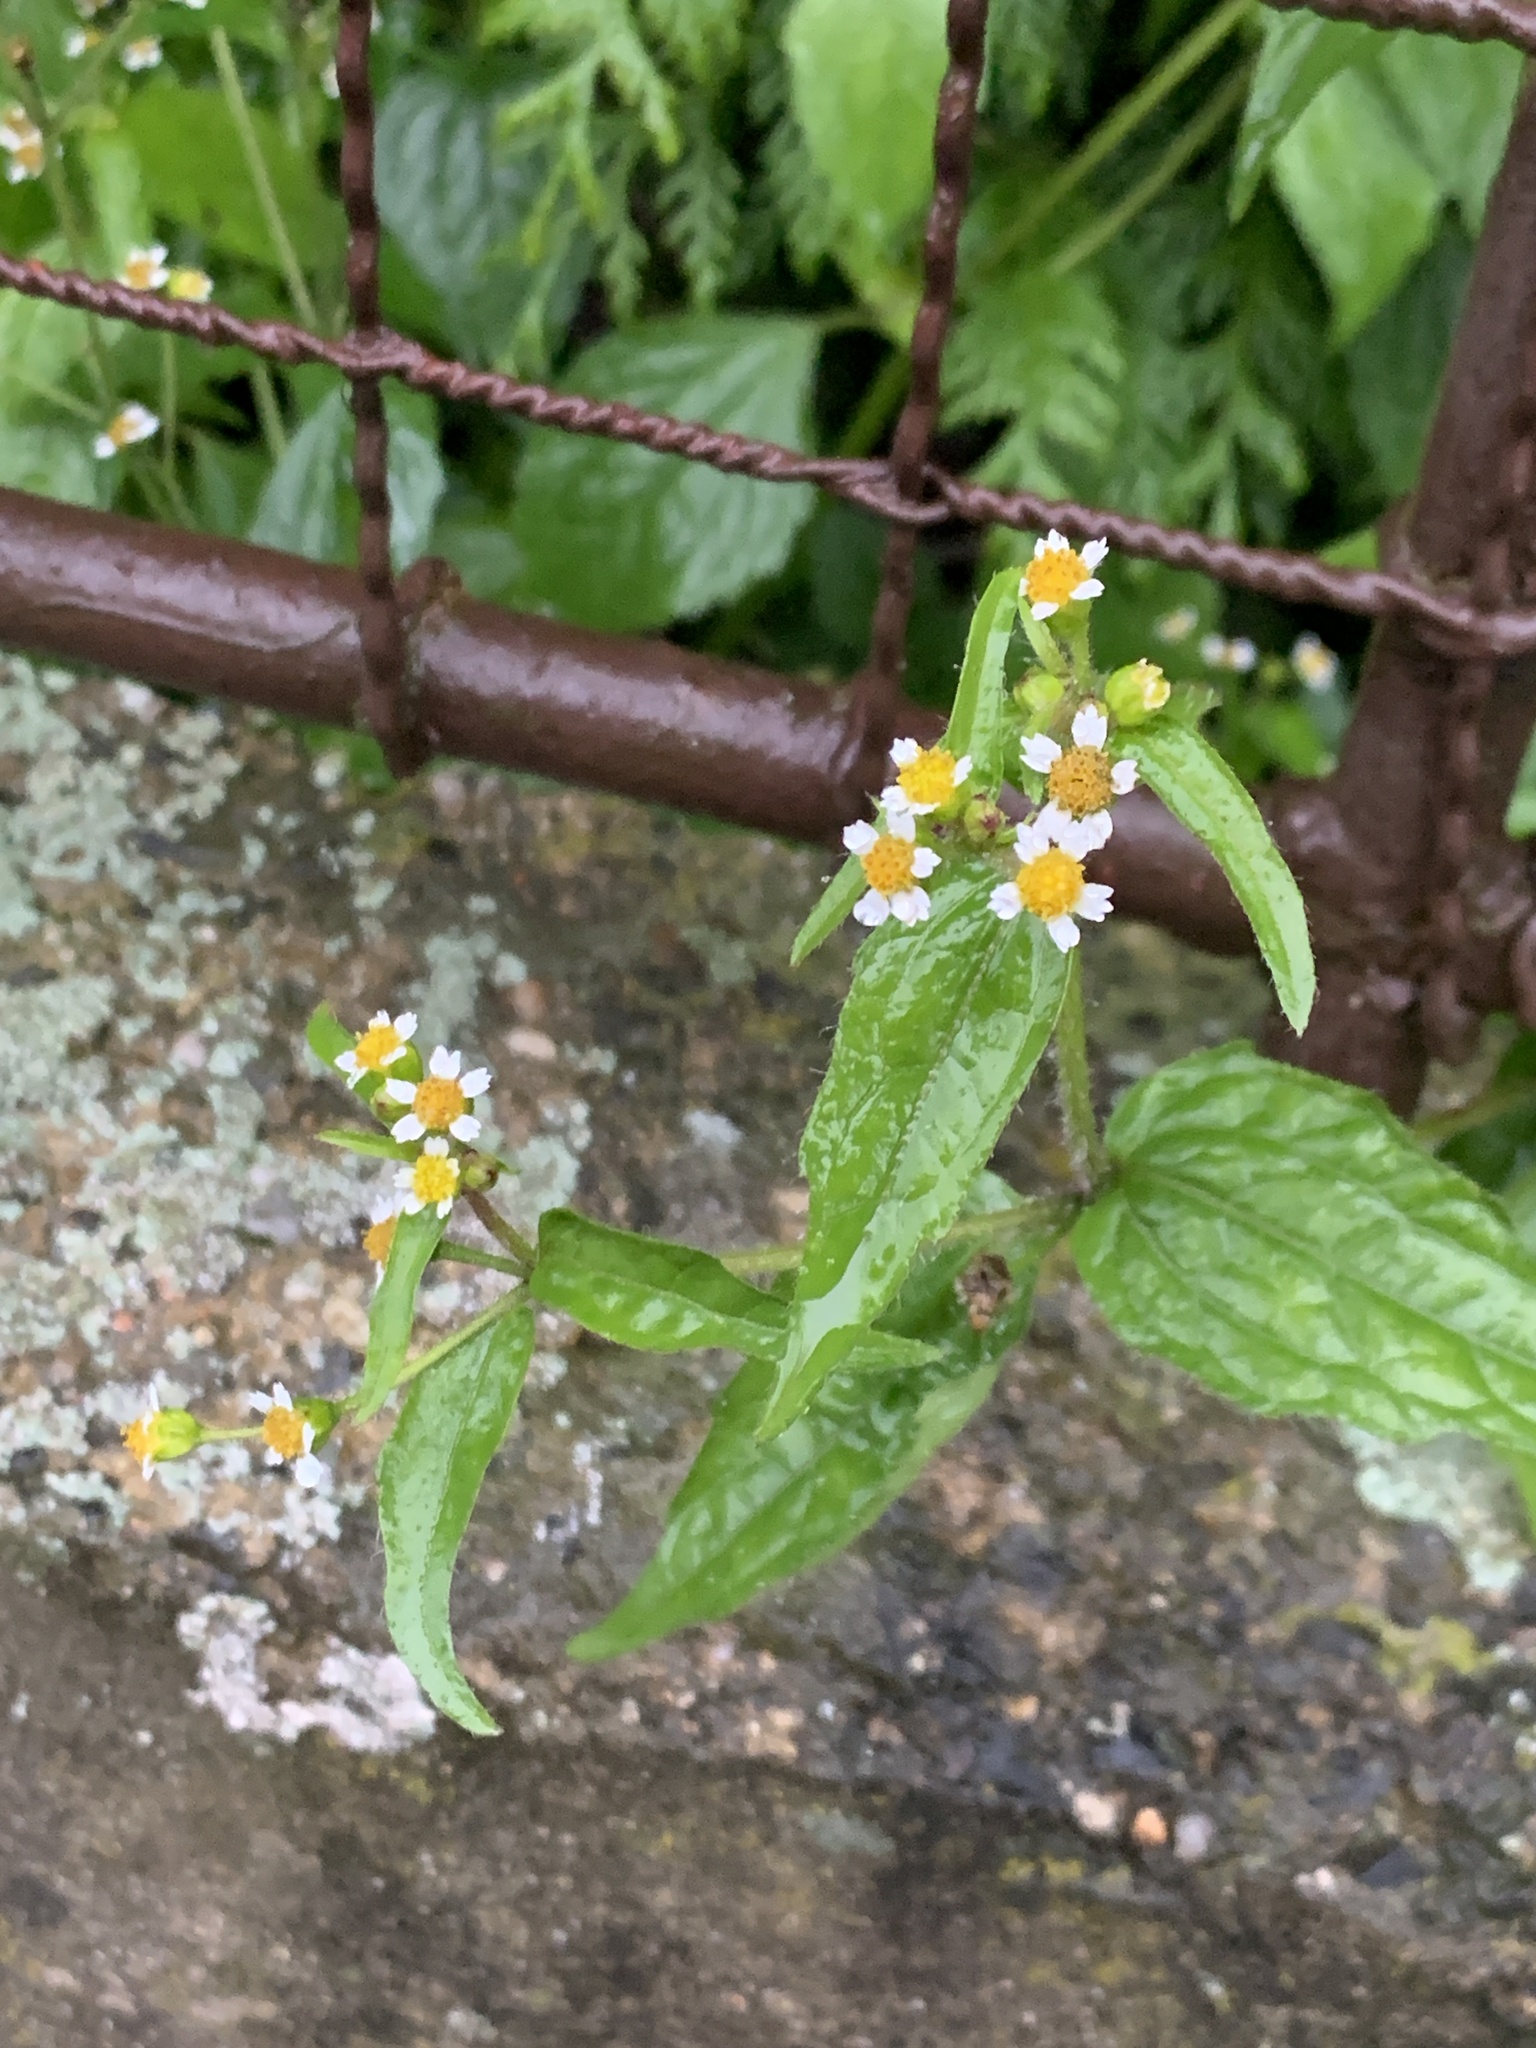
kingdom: Plantae
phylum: Tracheophyta
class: Magnoliopsida
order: Asterales
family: Asteraceae
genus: Galinsoga
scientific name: Galinsoga quadriradiata
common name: Shaggy soldier
